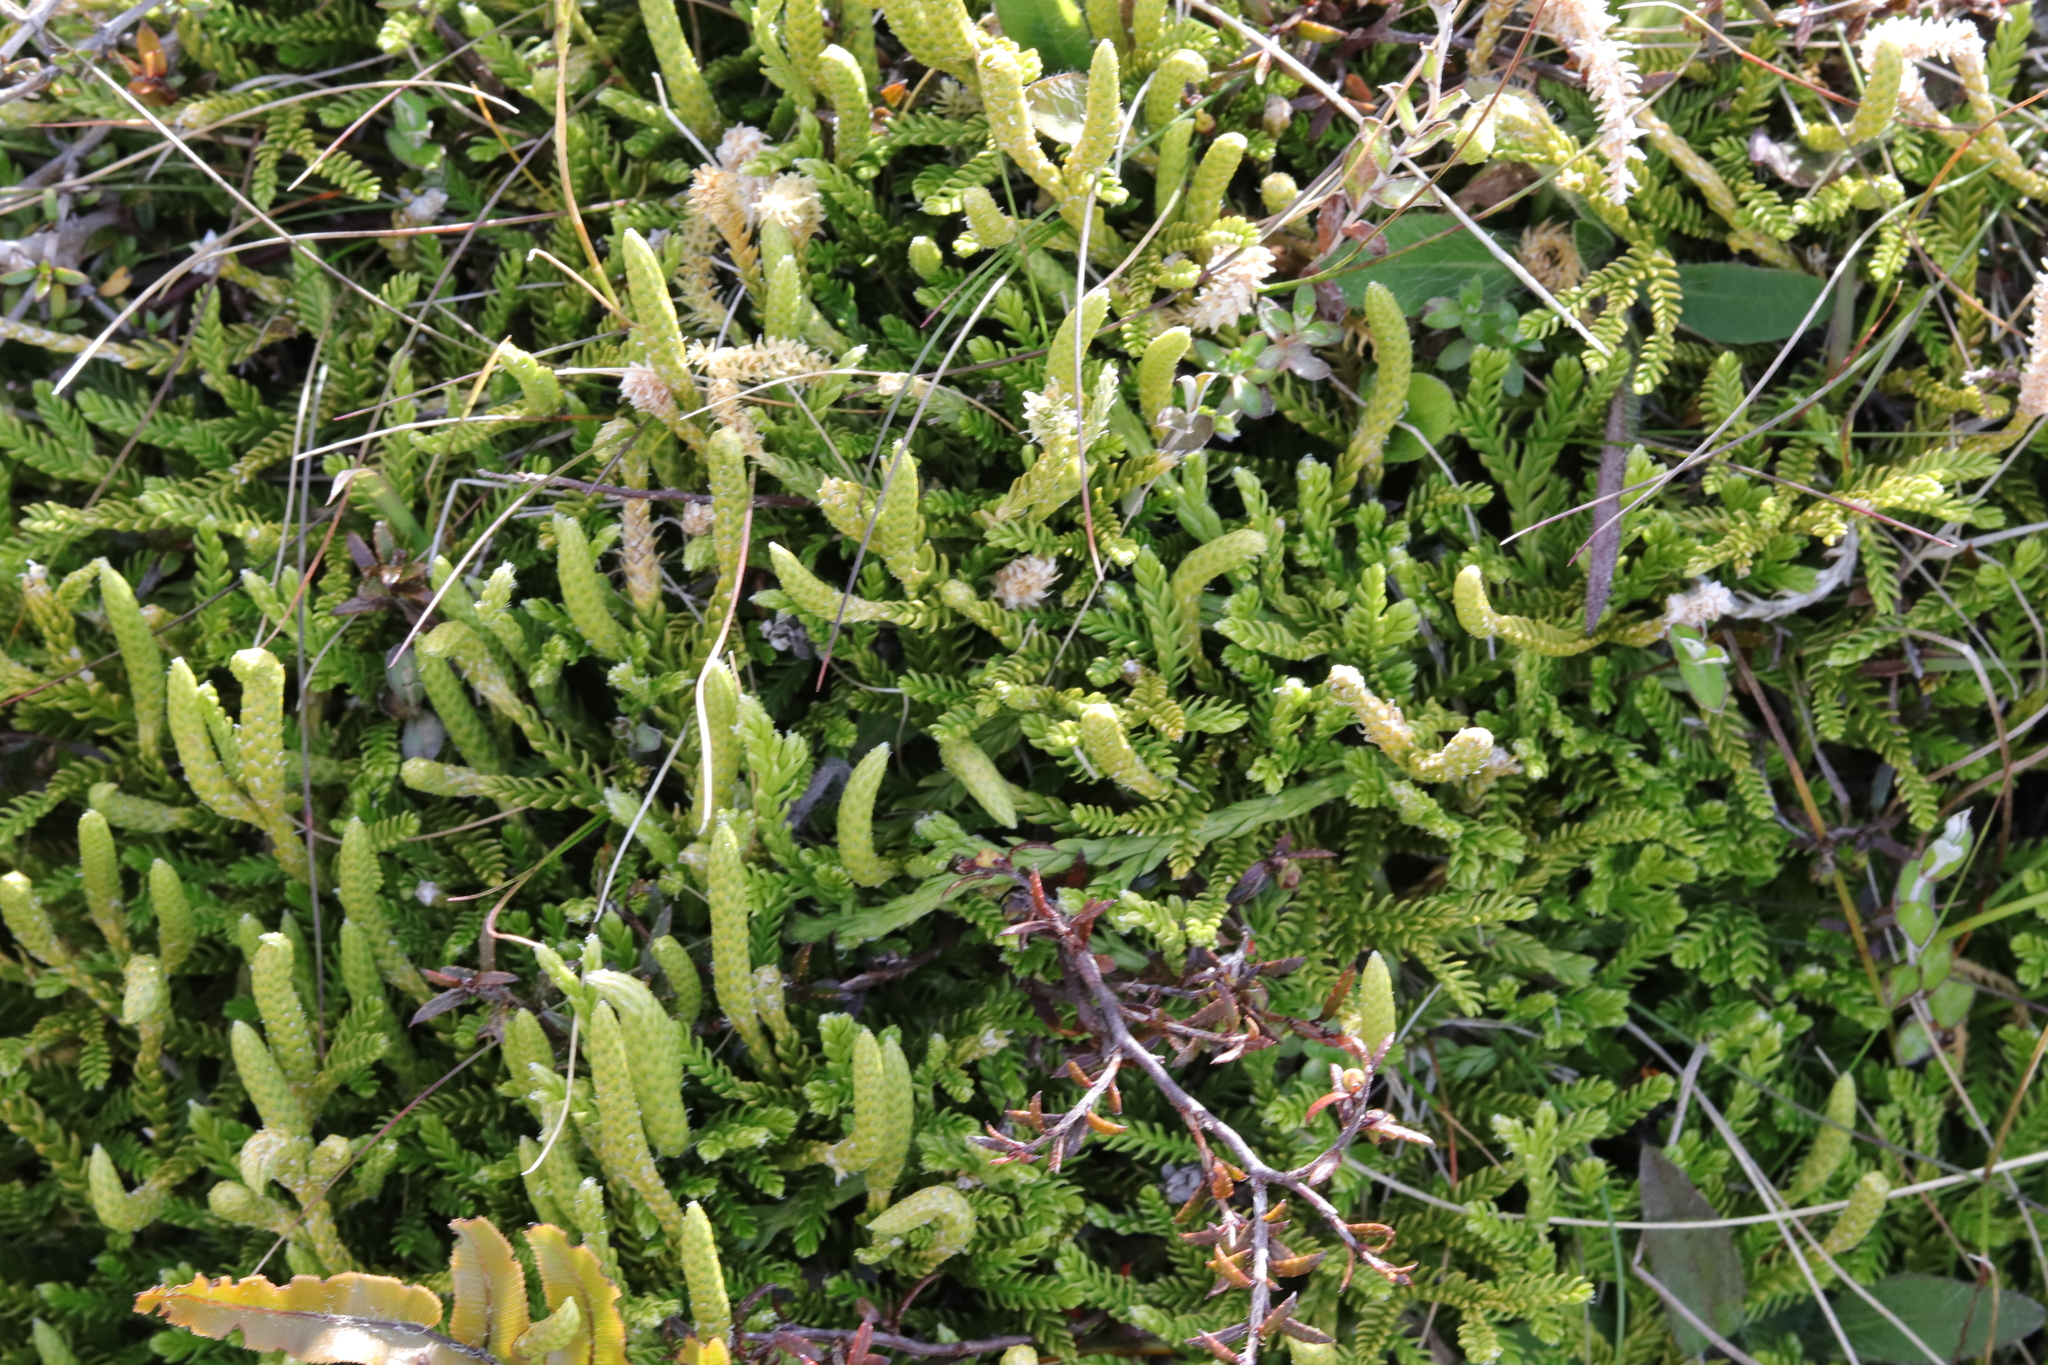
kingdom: Plantae
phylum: Tracheophyta
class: Lycopodiopsida
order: Lycopodiales
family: Lycopodiaceae
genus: Diphasium
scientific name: Diphasium scariosum
